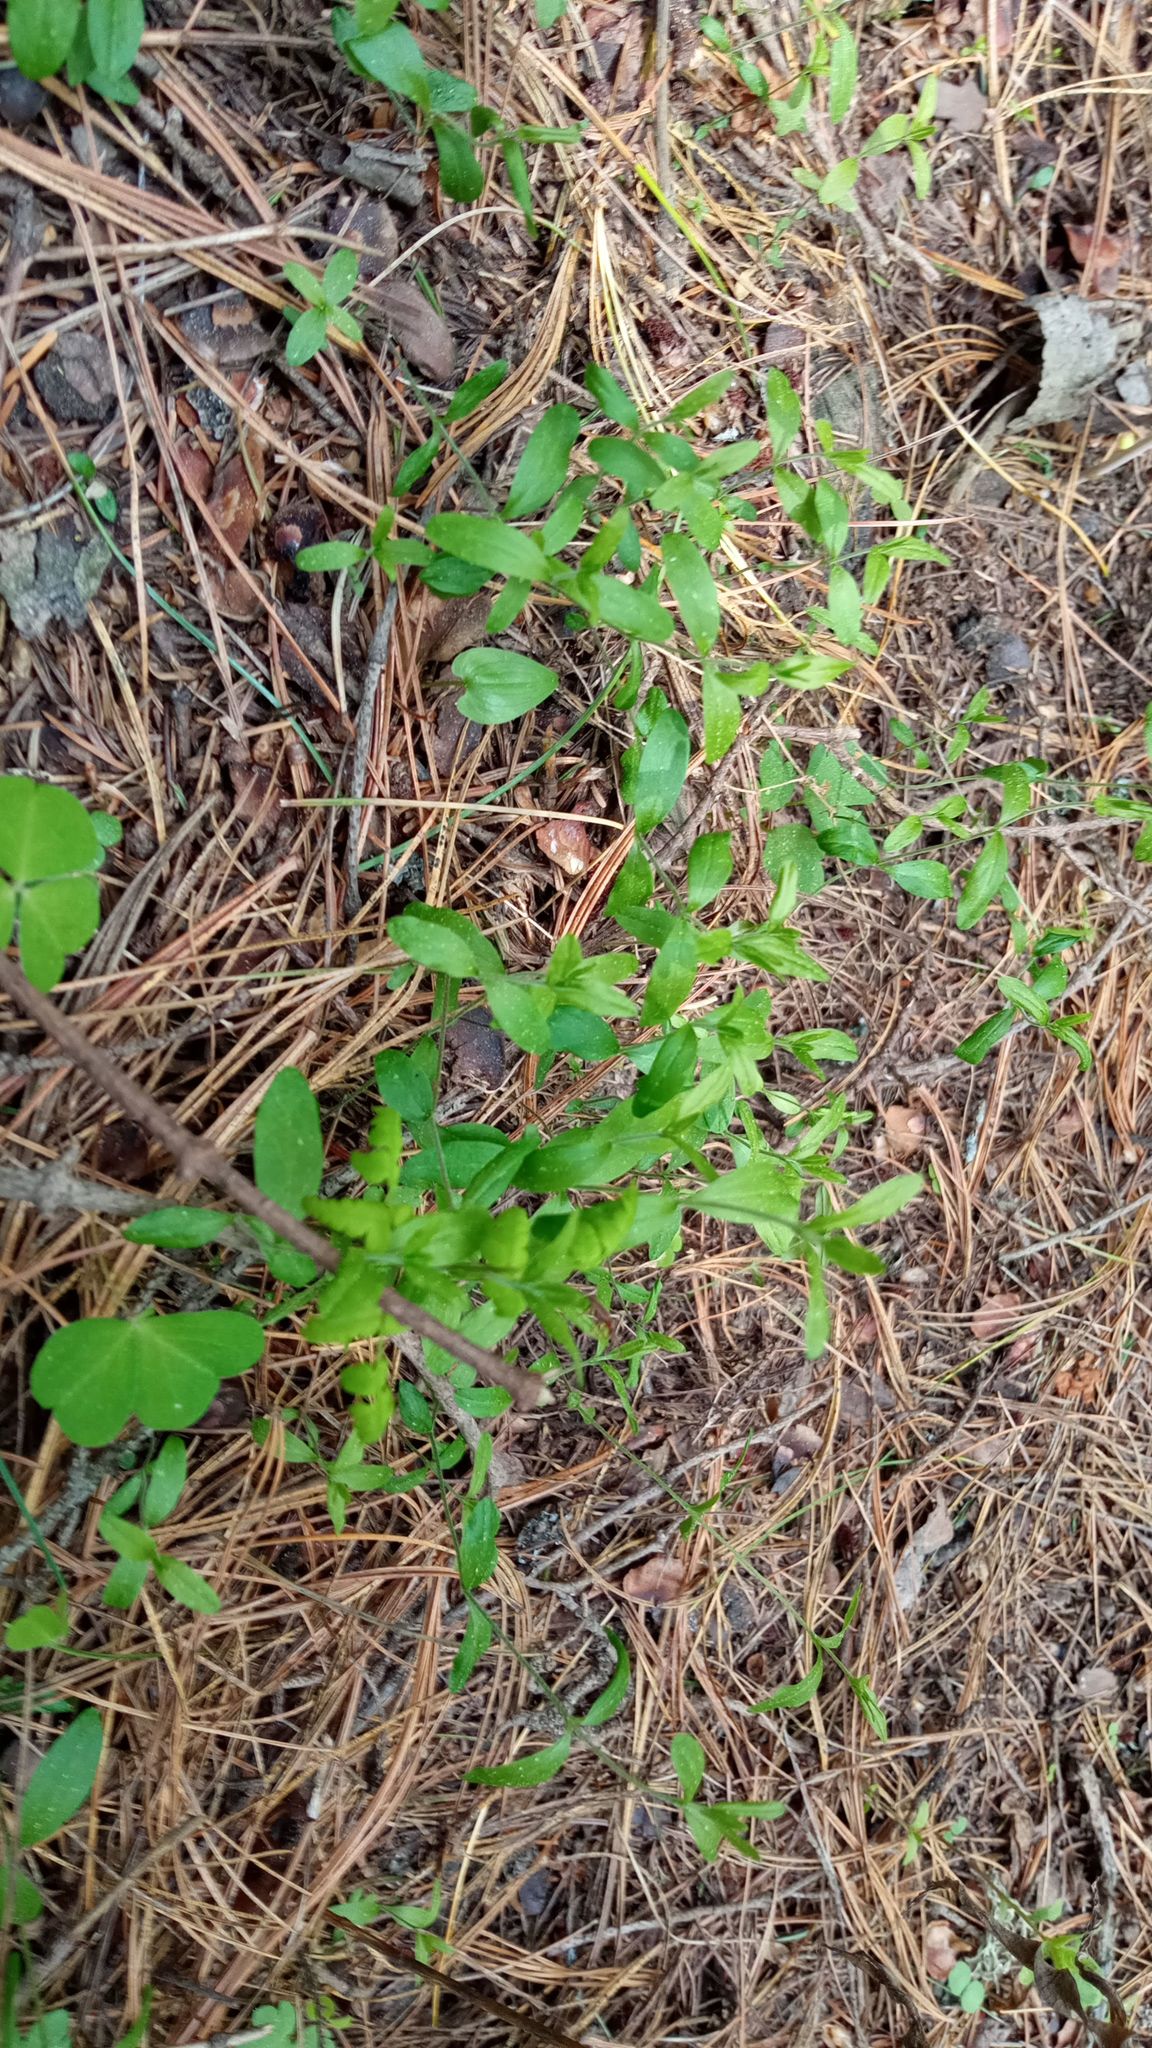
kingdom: Plantae
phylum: Tracheophyta
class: Magnoliopsida
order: Caryophyllales
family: Caryophyllaceae
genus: Moehringia
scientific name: Moehringia lateriflora
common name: Blunt-leaved sandwort
